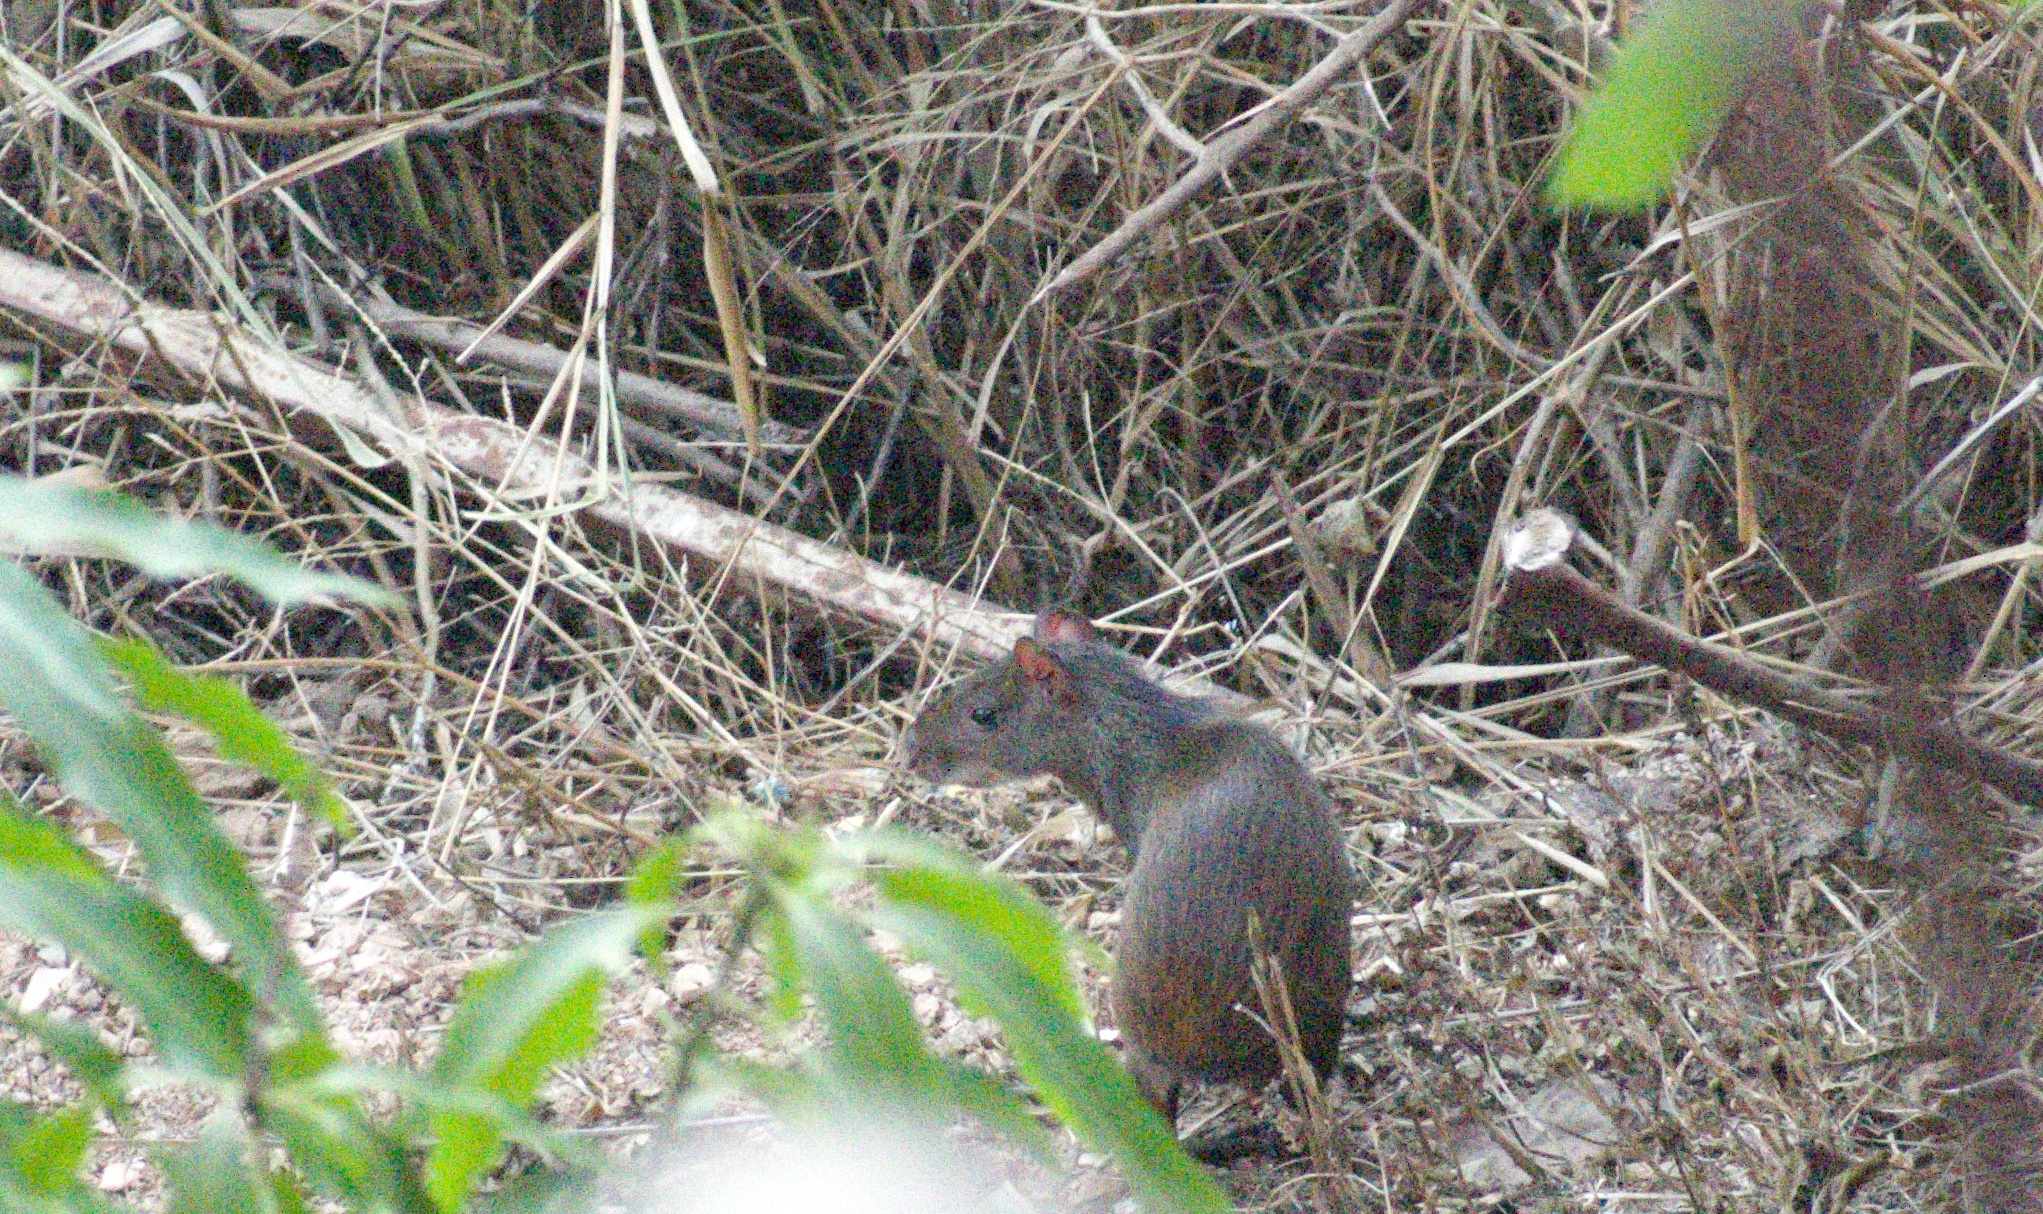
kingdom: Animalia
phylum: Chordata
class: Mammalia
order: Rodentia
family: Dasyproctidae
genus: Dasyprocta
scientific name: Dasyprocta leporina
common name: Red-rumped agouti
